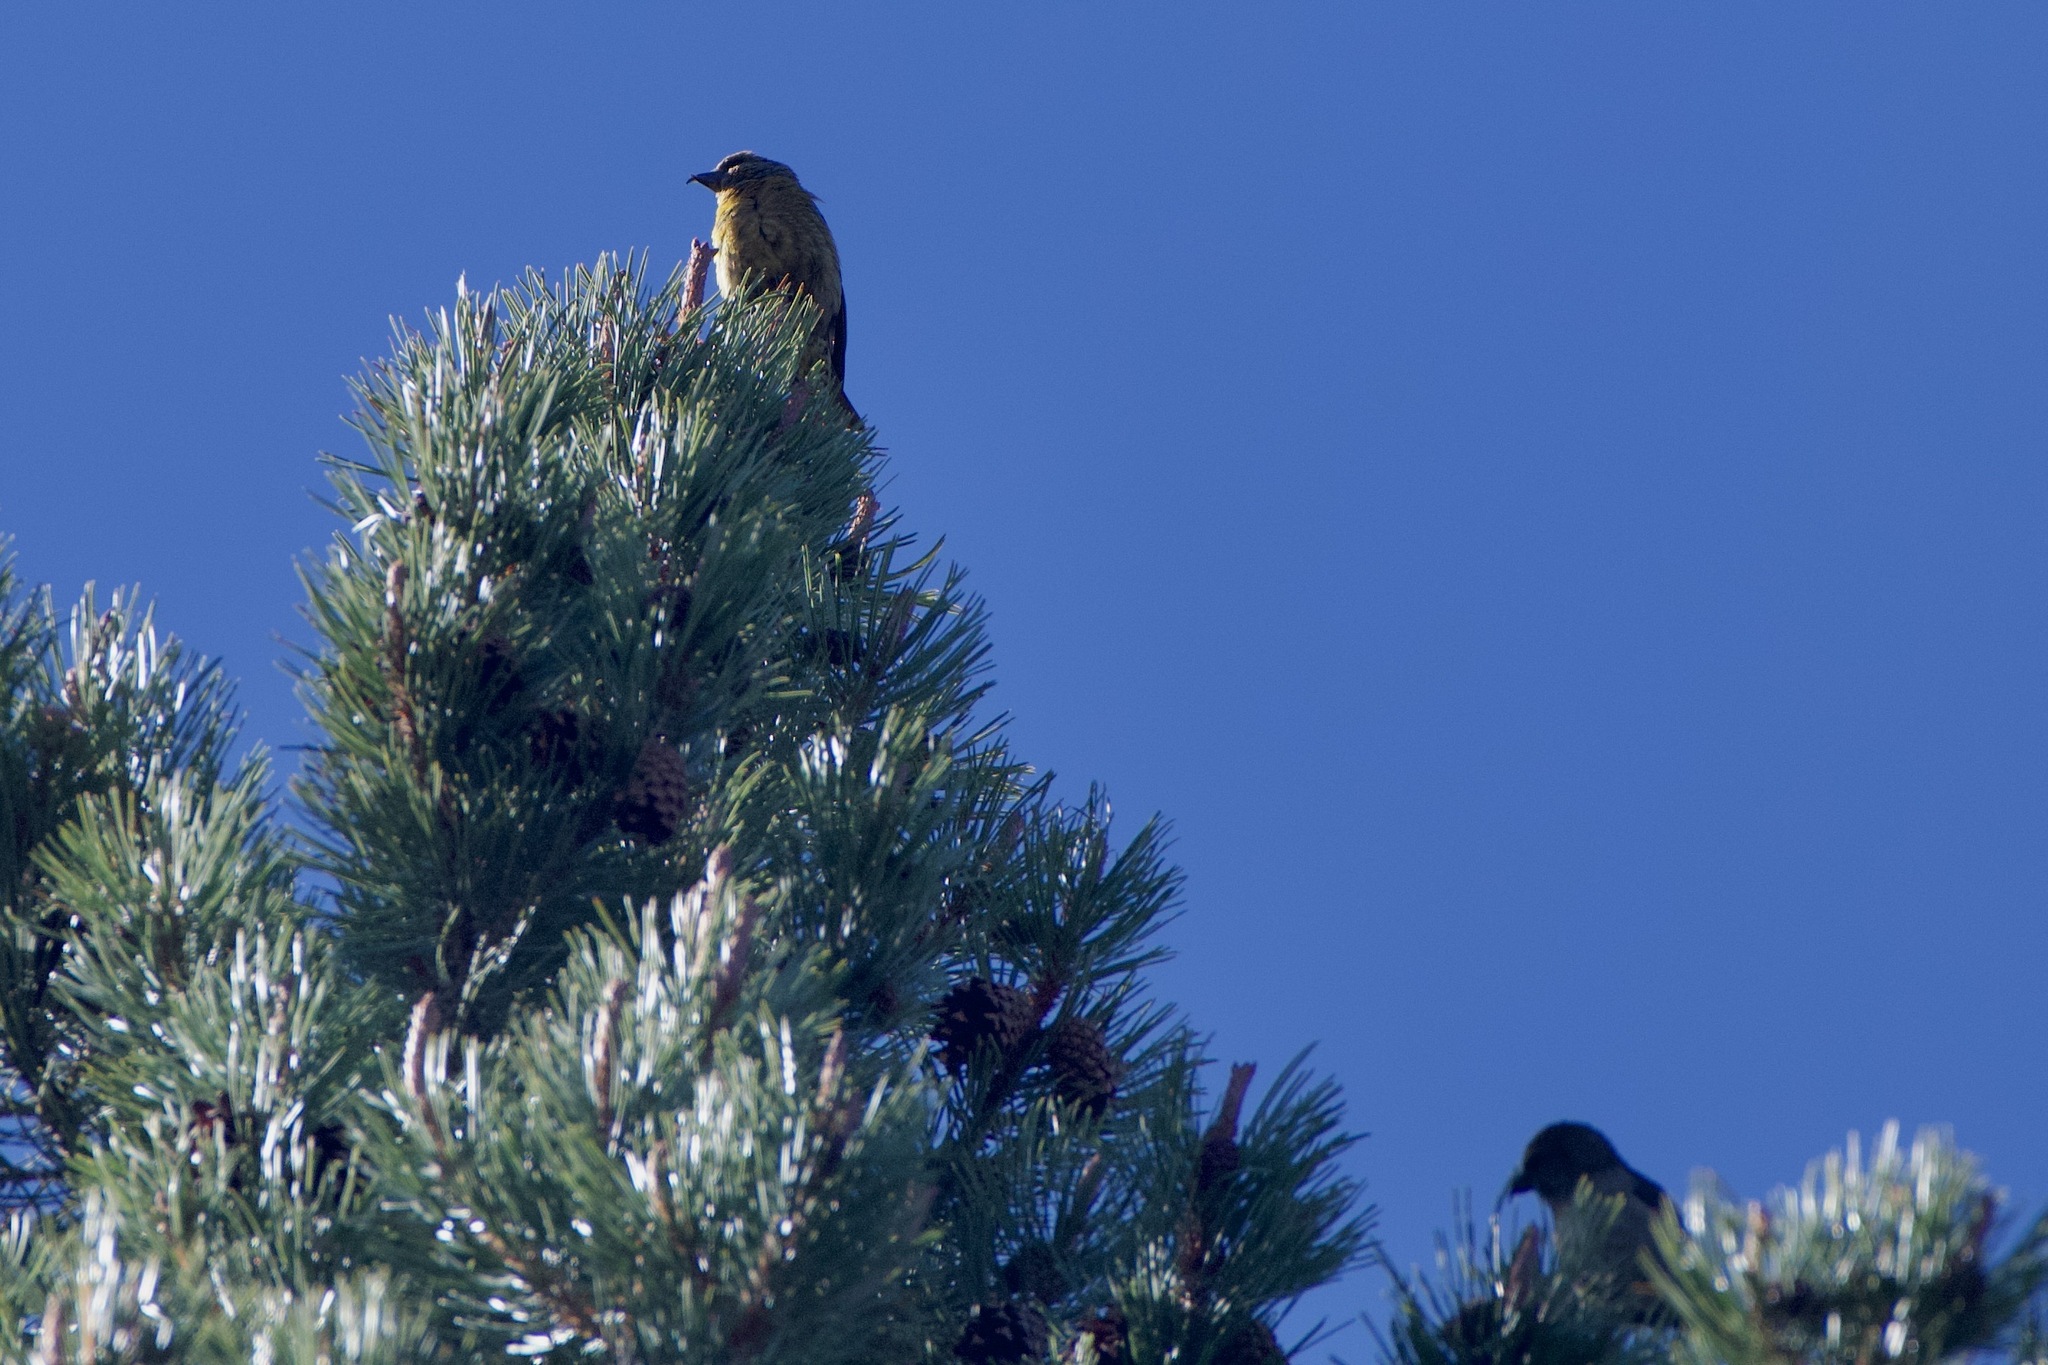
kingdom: Animalia
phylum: Chordata
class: Aves
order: Passeriformes
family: Fringillidae
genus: Loxia
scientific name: Loxia curvirostra
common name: Red crossbill
